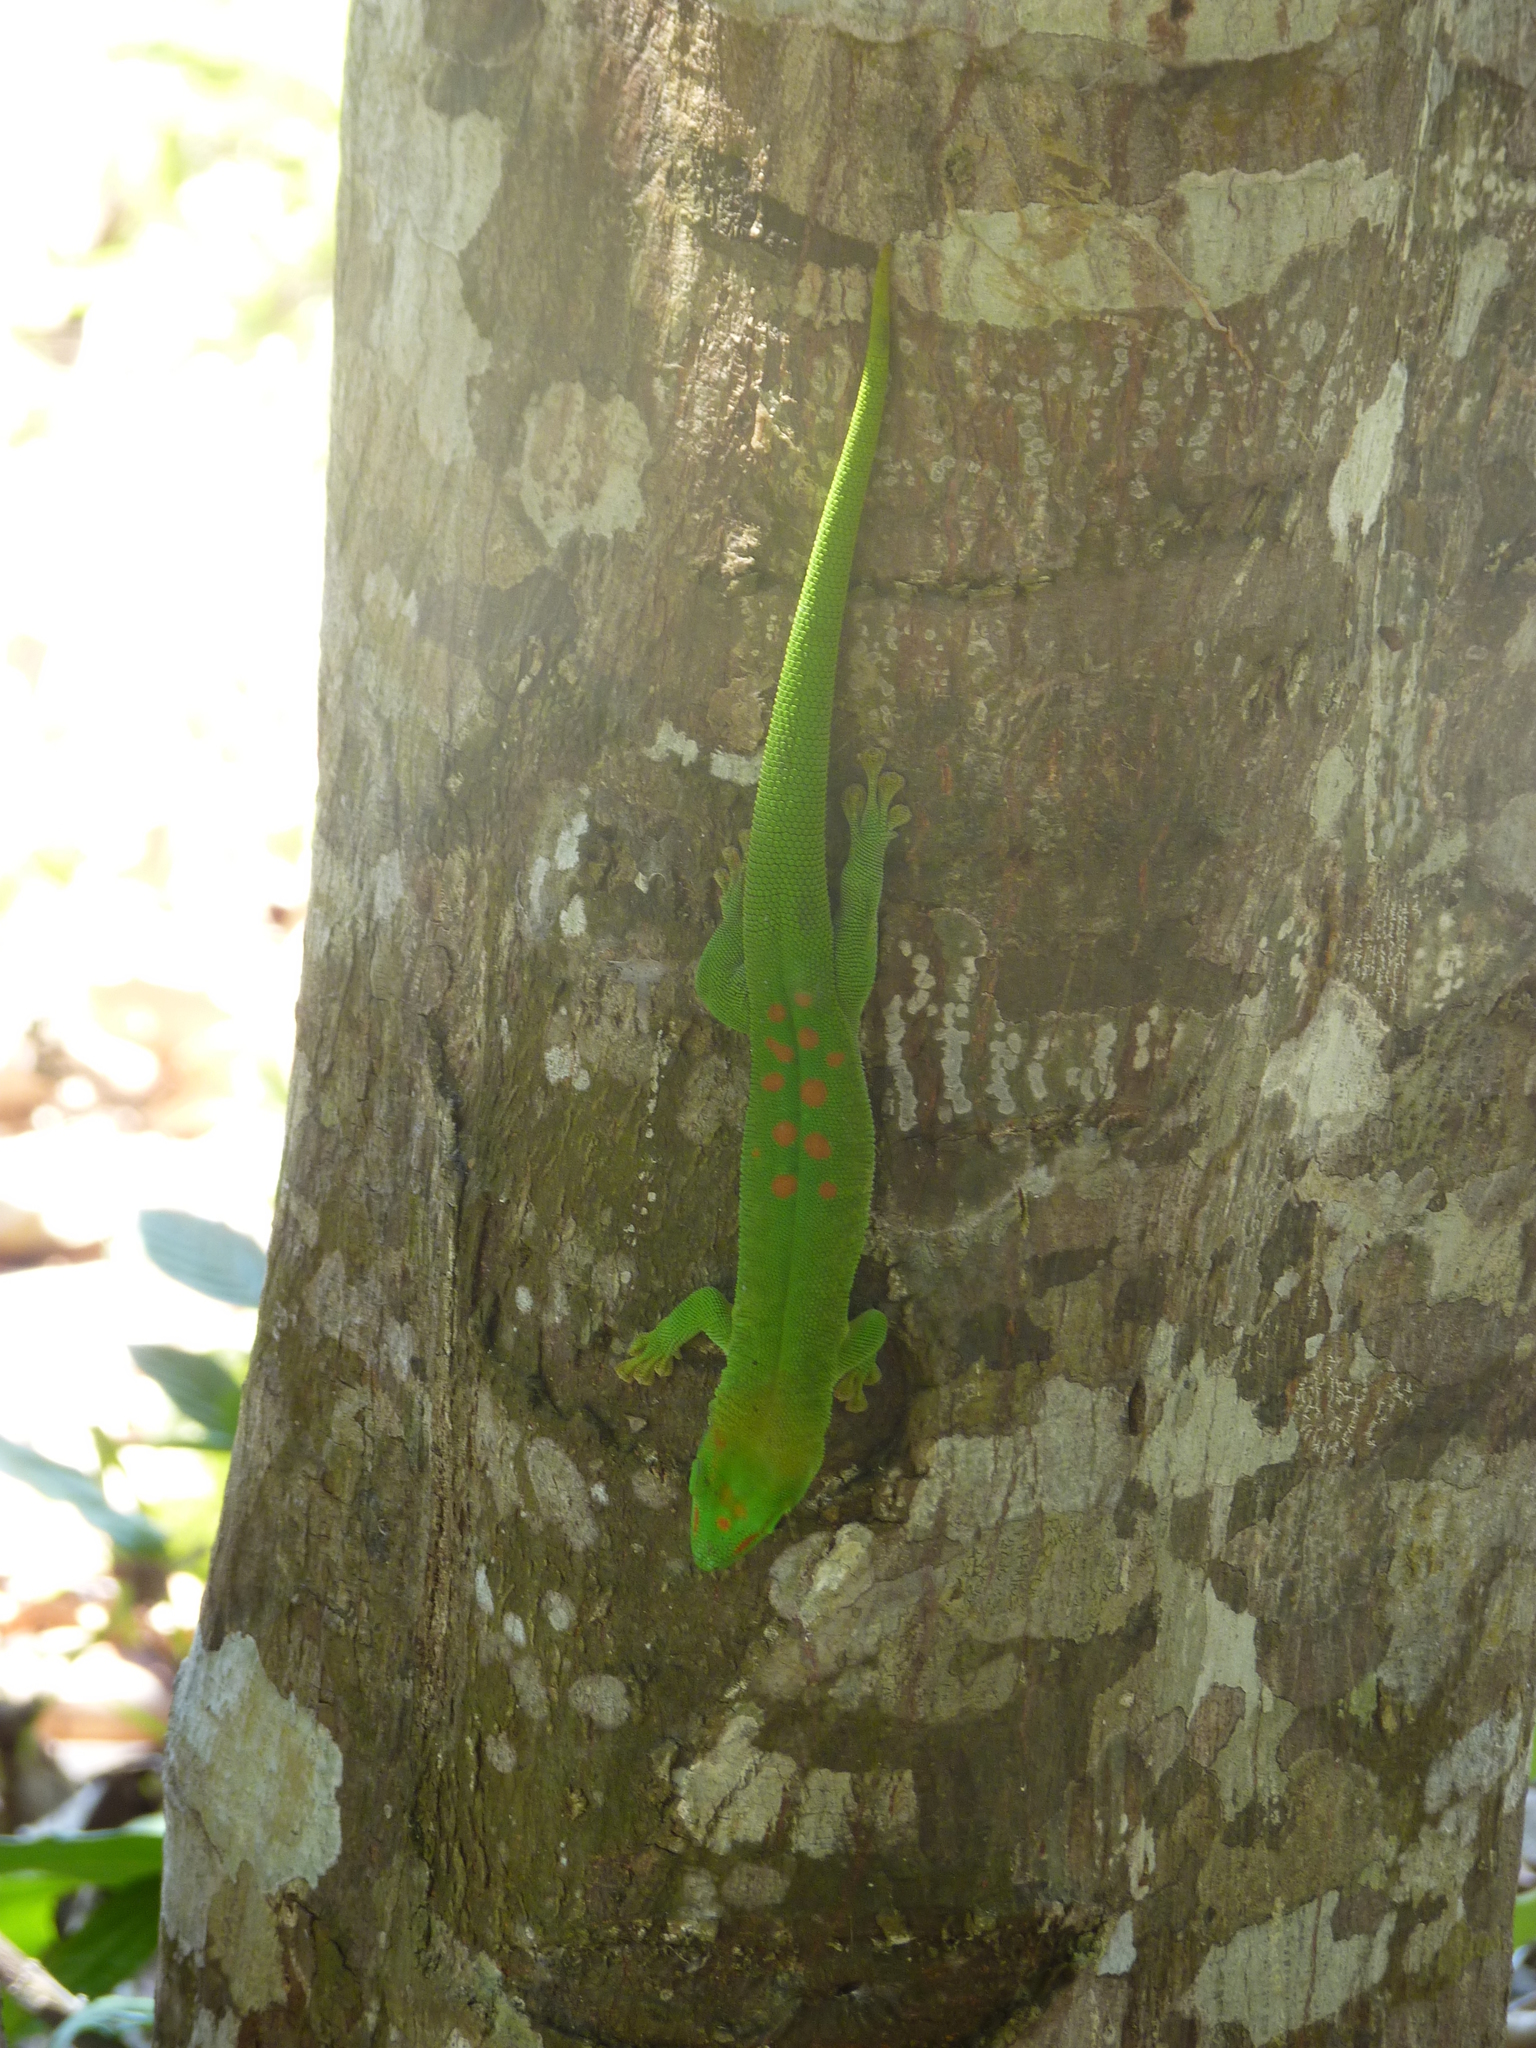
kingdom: Animalia
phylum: Chordata
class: Squamata
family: Gekkonidae
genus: Phelsuma
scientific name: Phelsuma grandis
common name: Madagascar giant day gecko
